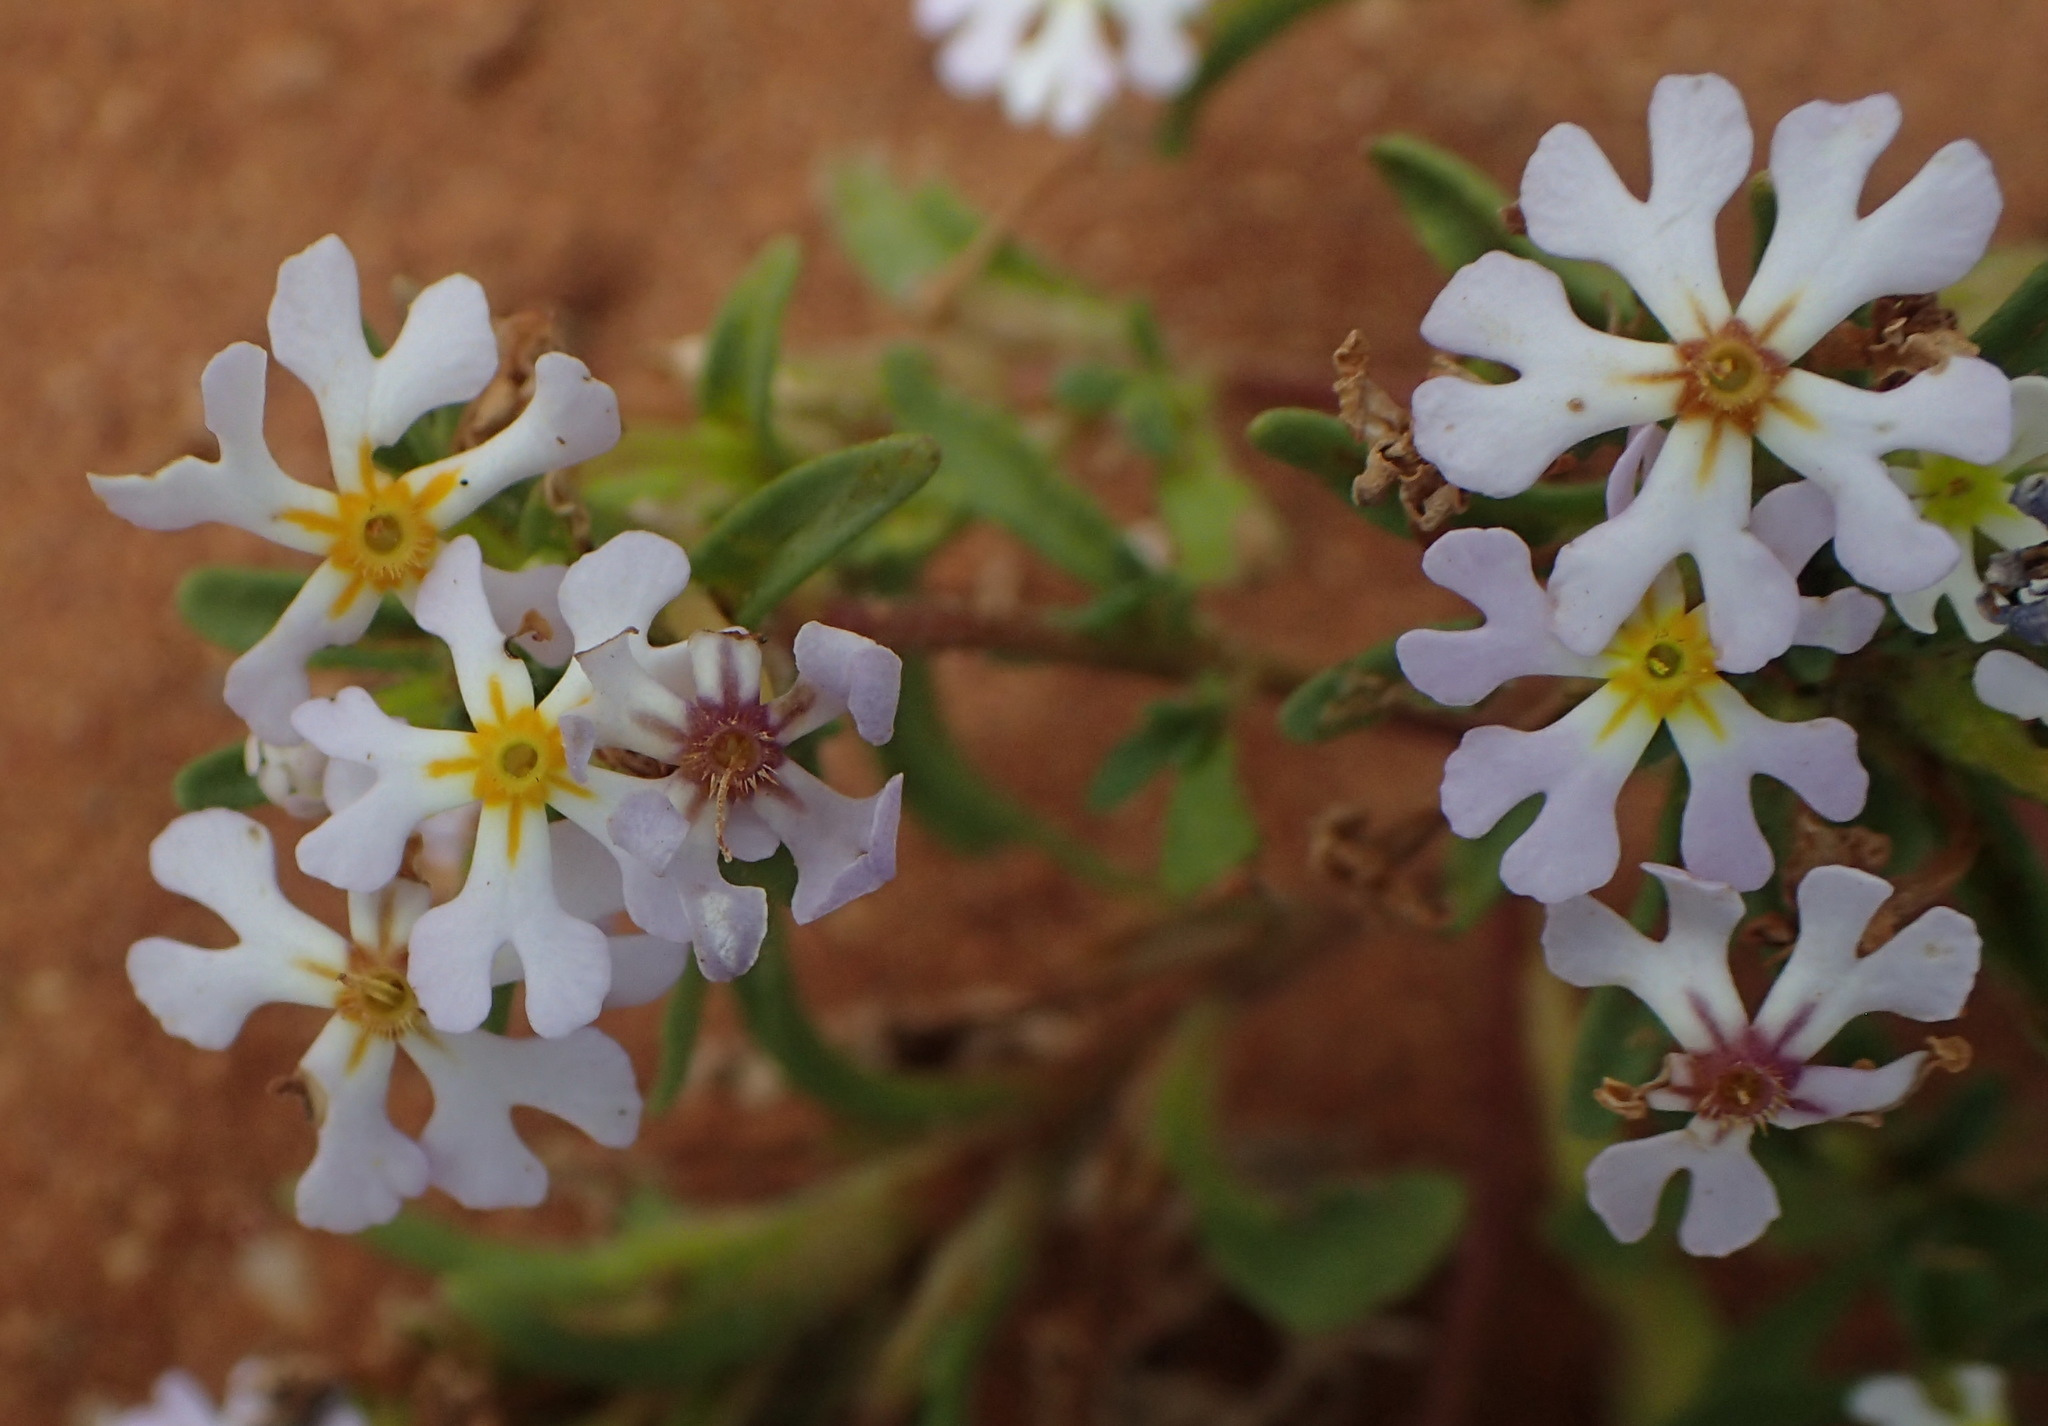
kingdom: Plantae
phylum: Tracheophyta
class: Magnoliopsida
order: Lamiales
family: Scrophulariaceae
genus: Zaluzianskya
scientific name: Zaluzianskya affinis
